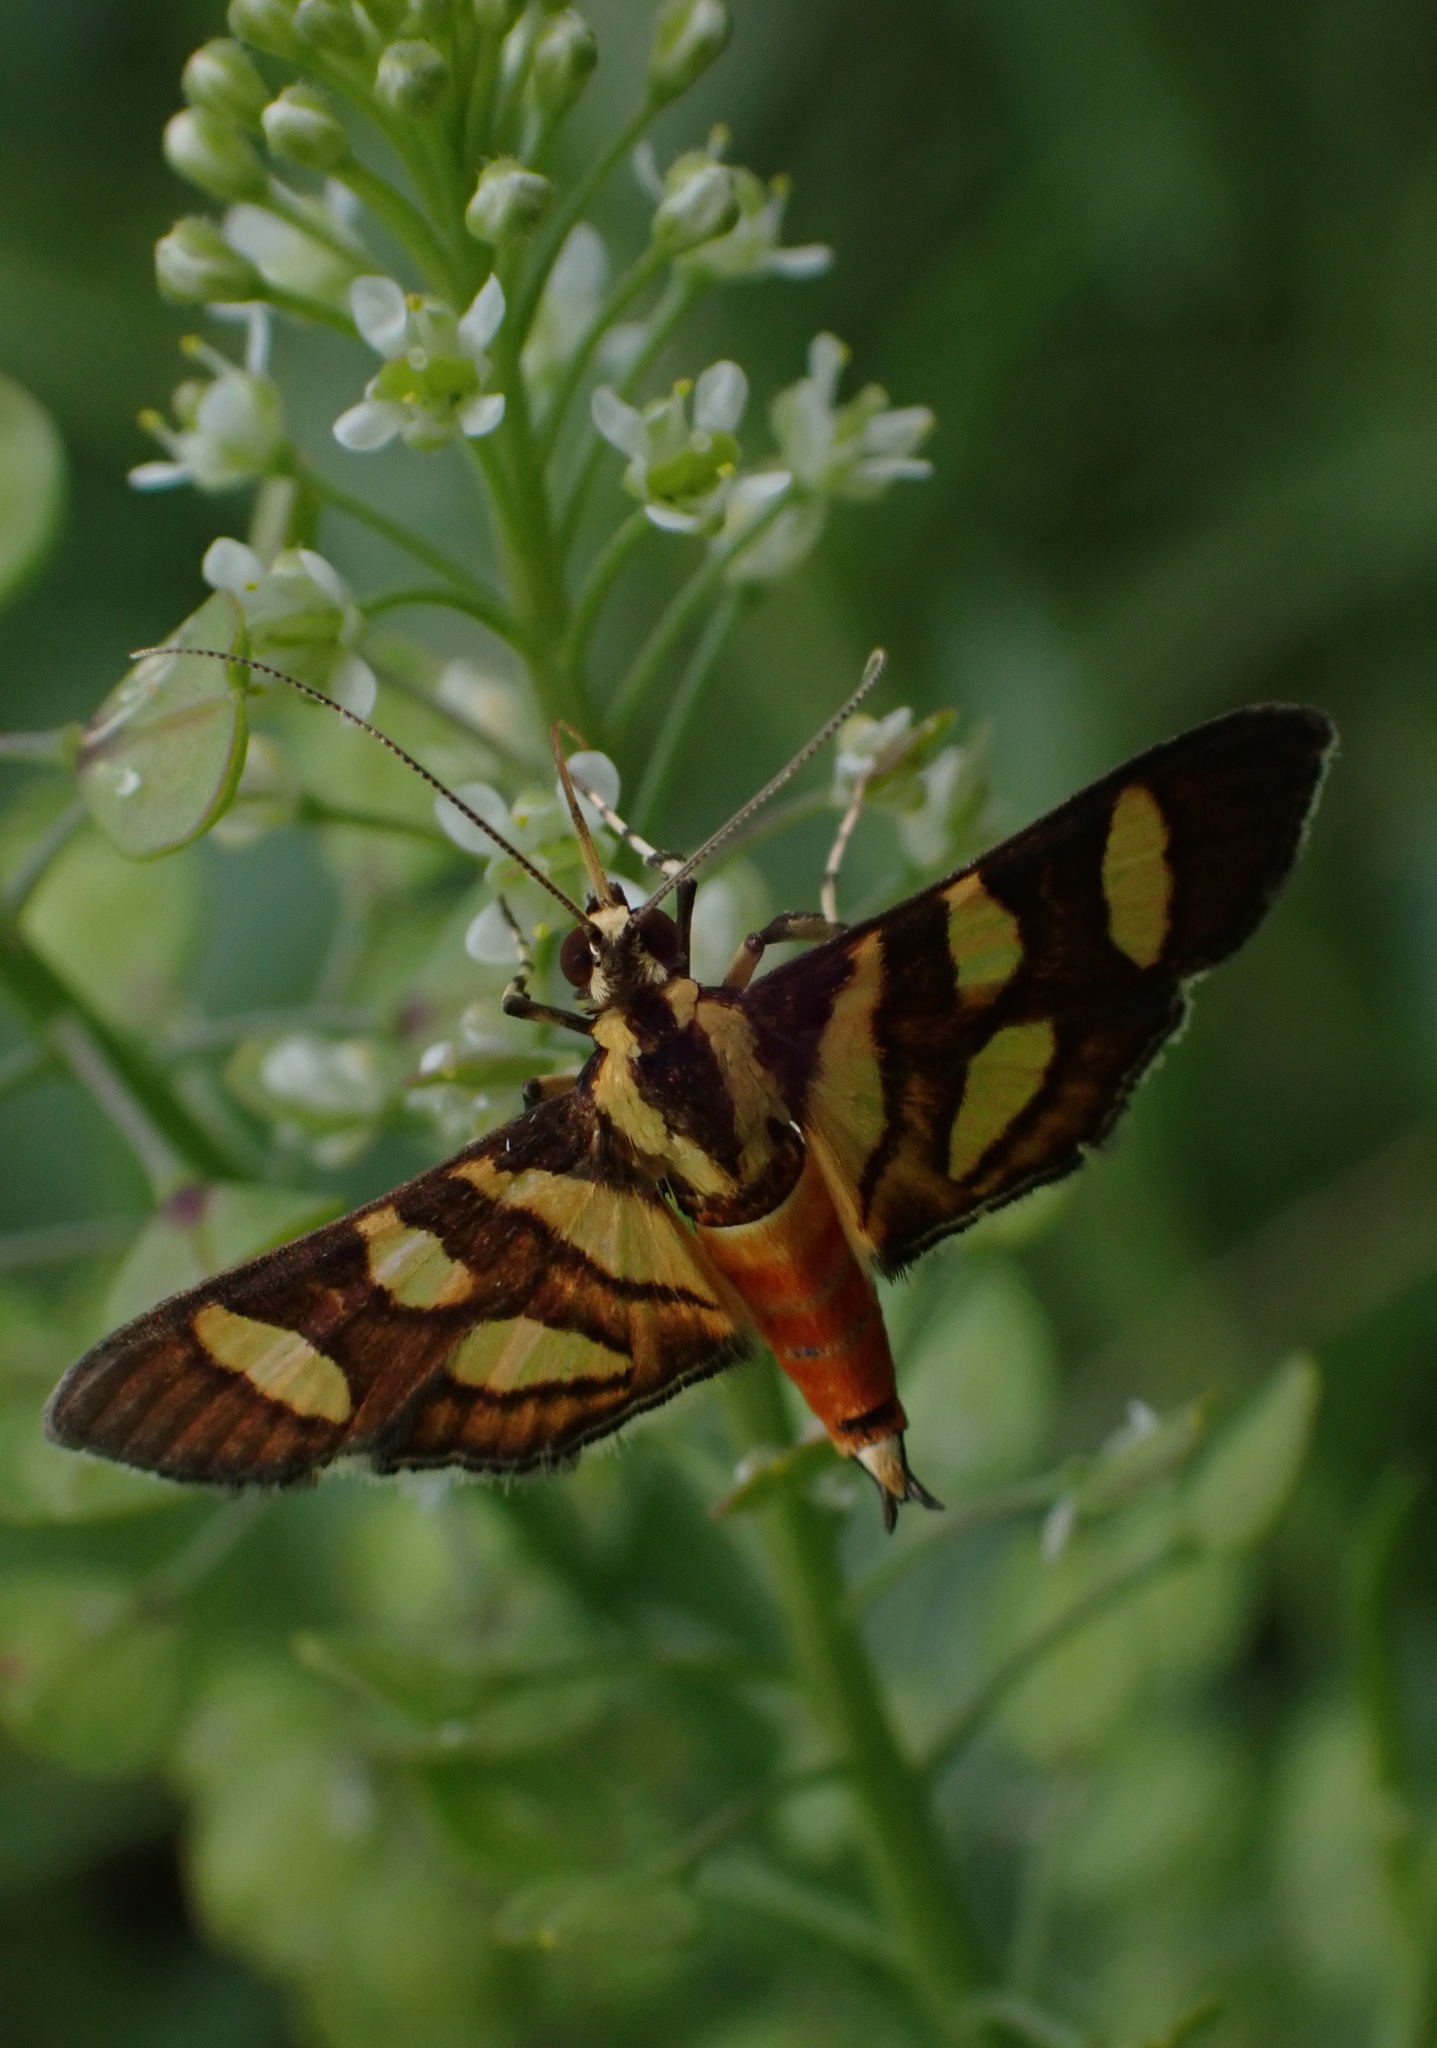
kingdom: Animalia
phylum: Arthropoda
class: Insecta
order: Lepidoptera
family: Crambidae
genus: Syngamia
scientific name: Syngamia florella
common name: Orange-spotted flower moth
